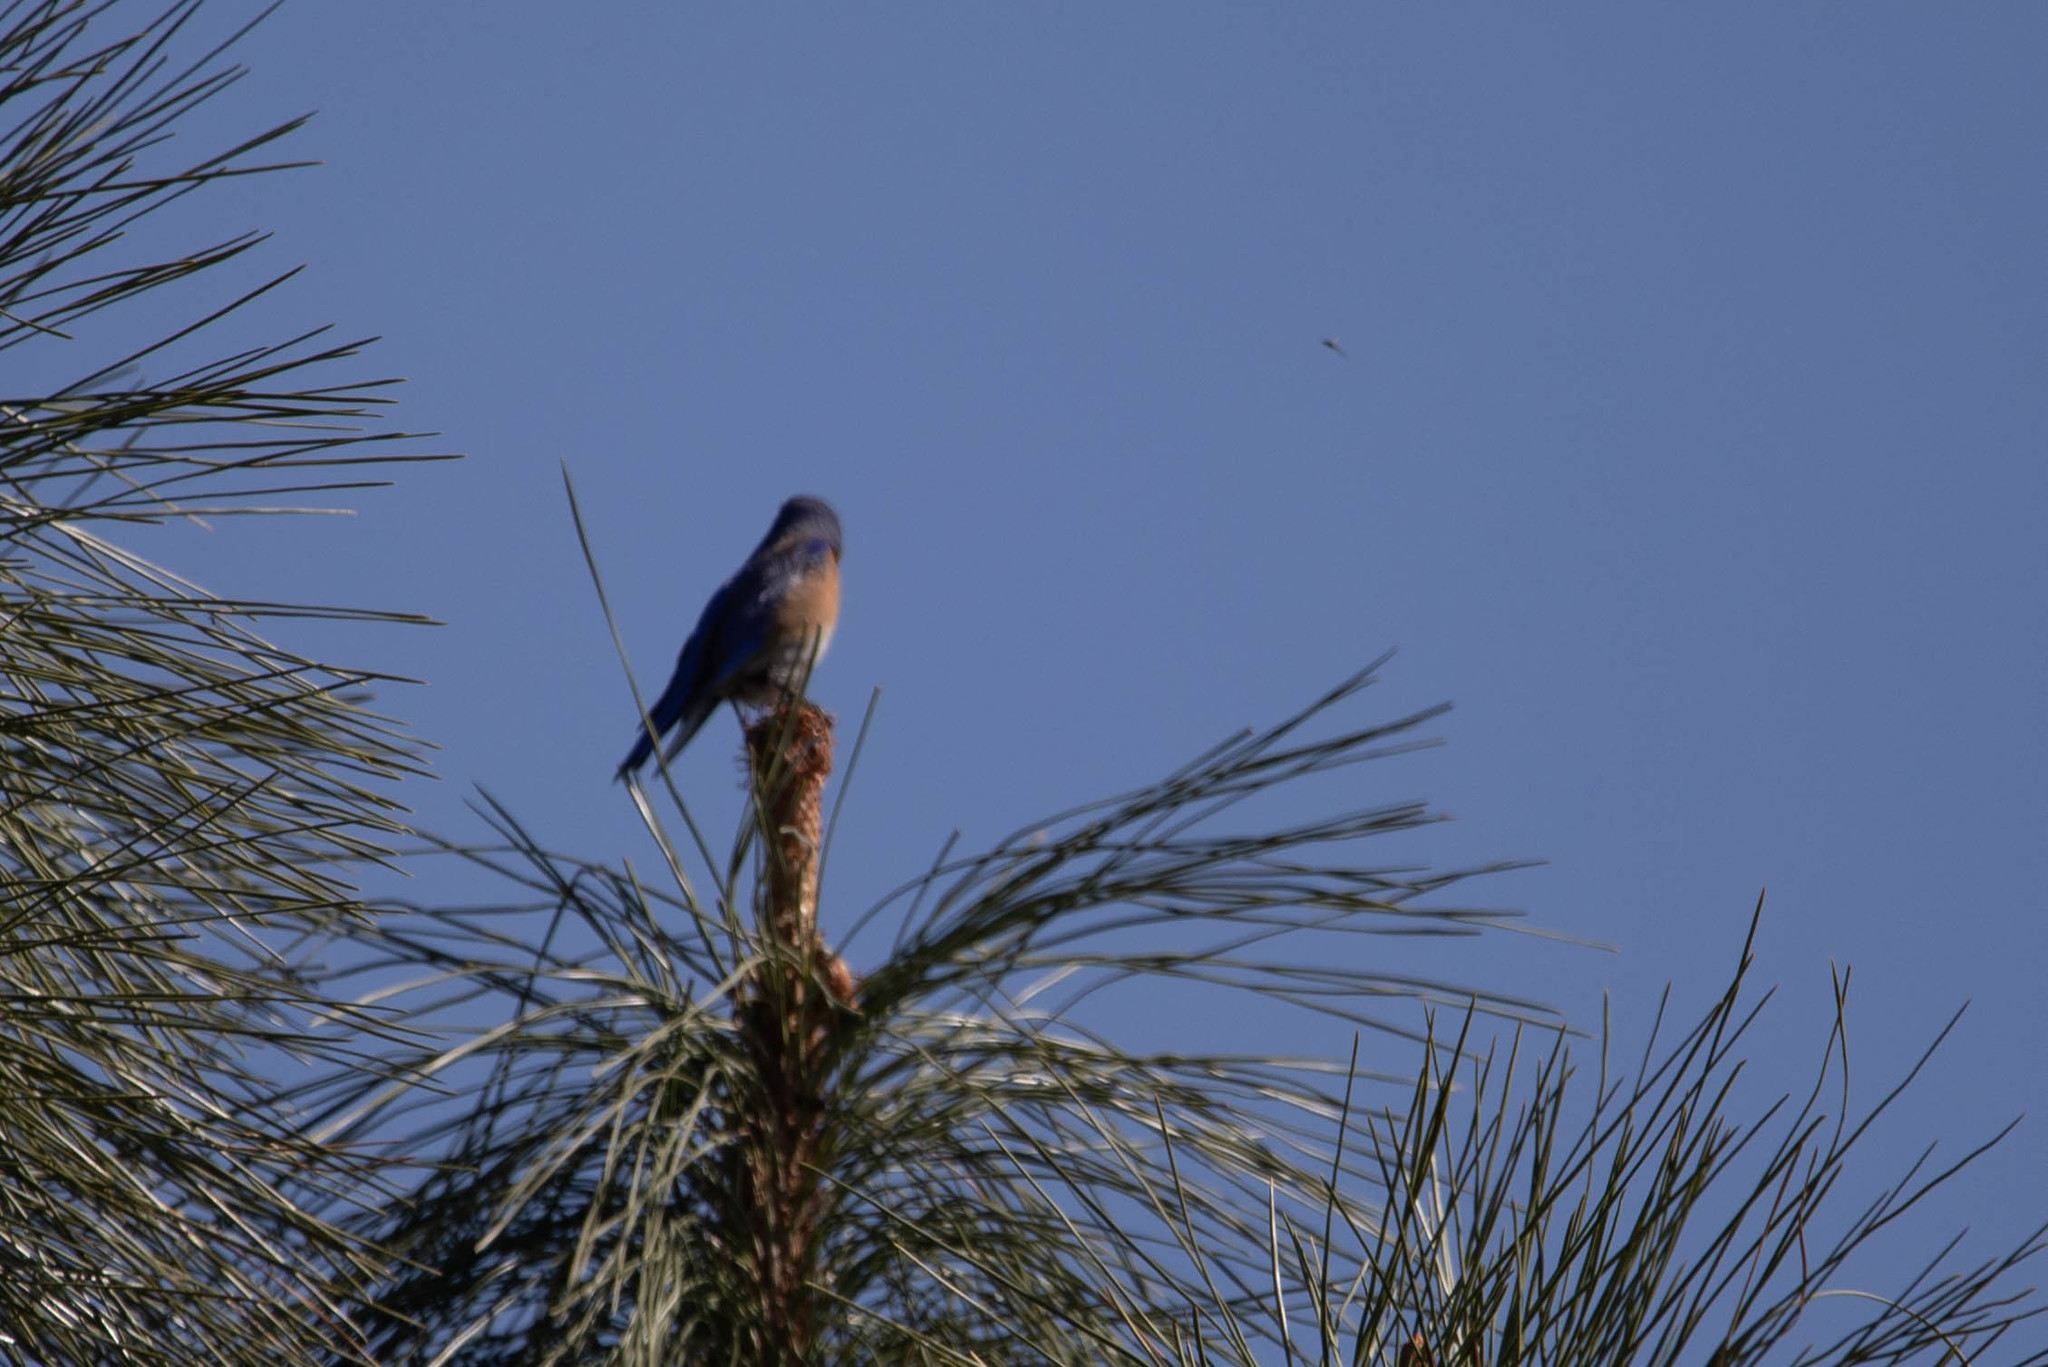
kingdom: Animalia
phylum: Chordata
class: Aves
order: Passeriformes
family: Turdidae
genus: Sialia
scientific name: Sialia mexicana
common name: Western bluebird
